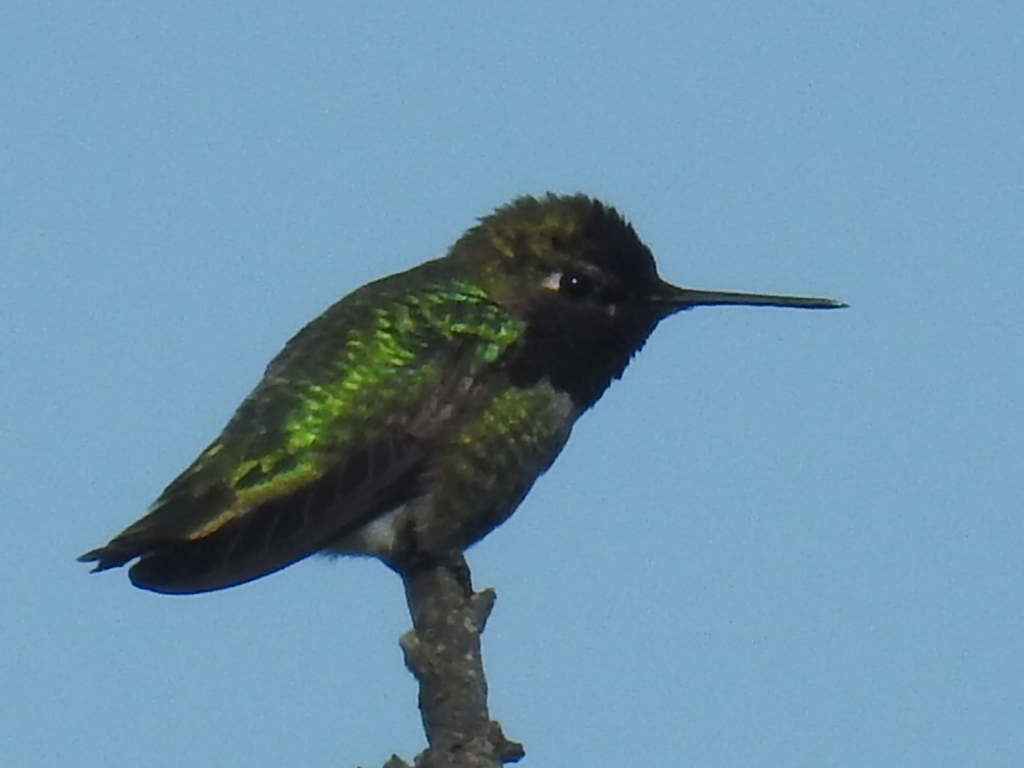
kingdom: Animalia
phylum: Chordata
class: Aves
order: Apodiformes
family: Trochilidae
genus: Calypte
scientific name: Calypte anna
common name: Anna's hummingbird
